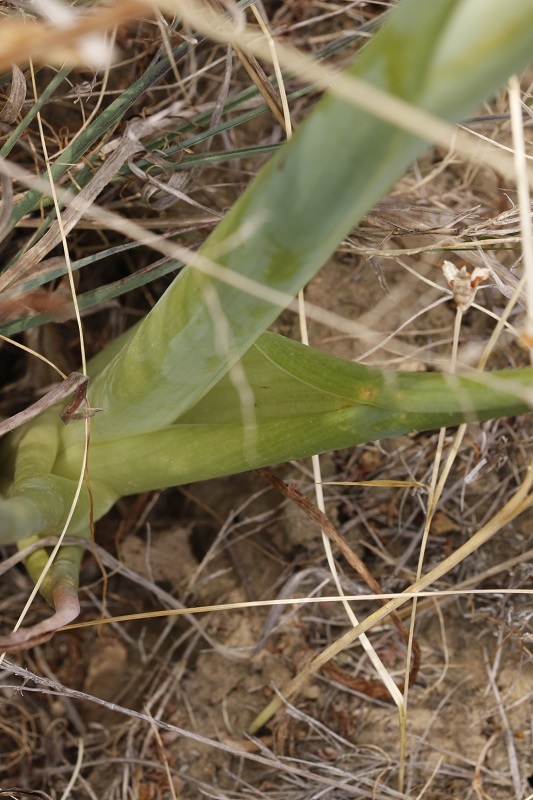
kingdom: Plantae
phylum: Tracheophyta
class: Liliopsida
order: Asparagales
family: Asparagaceae
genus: Albuca
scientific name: Albuca canadensis
